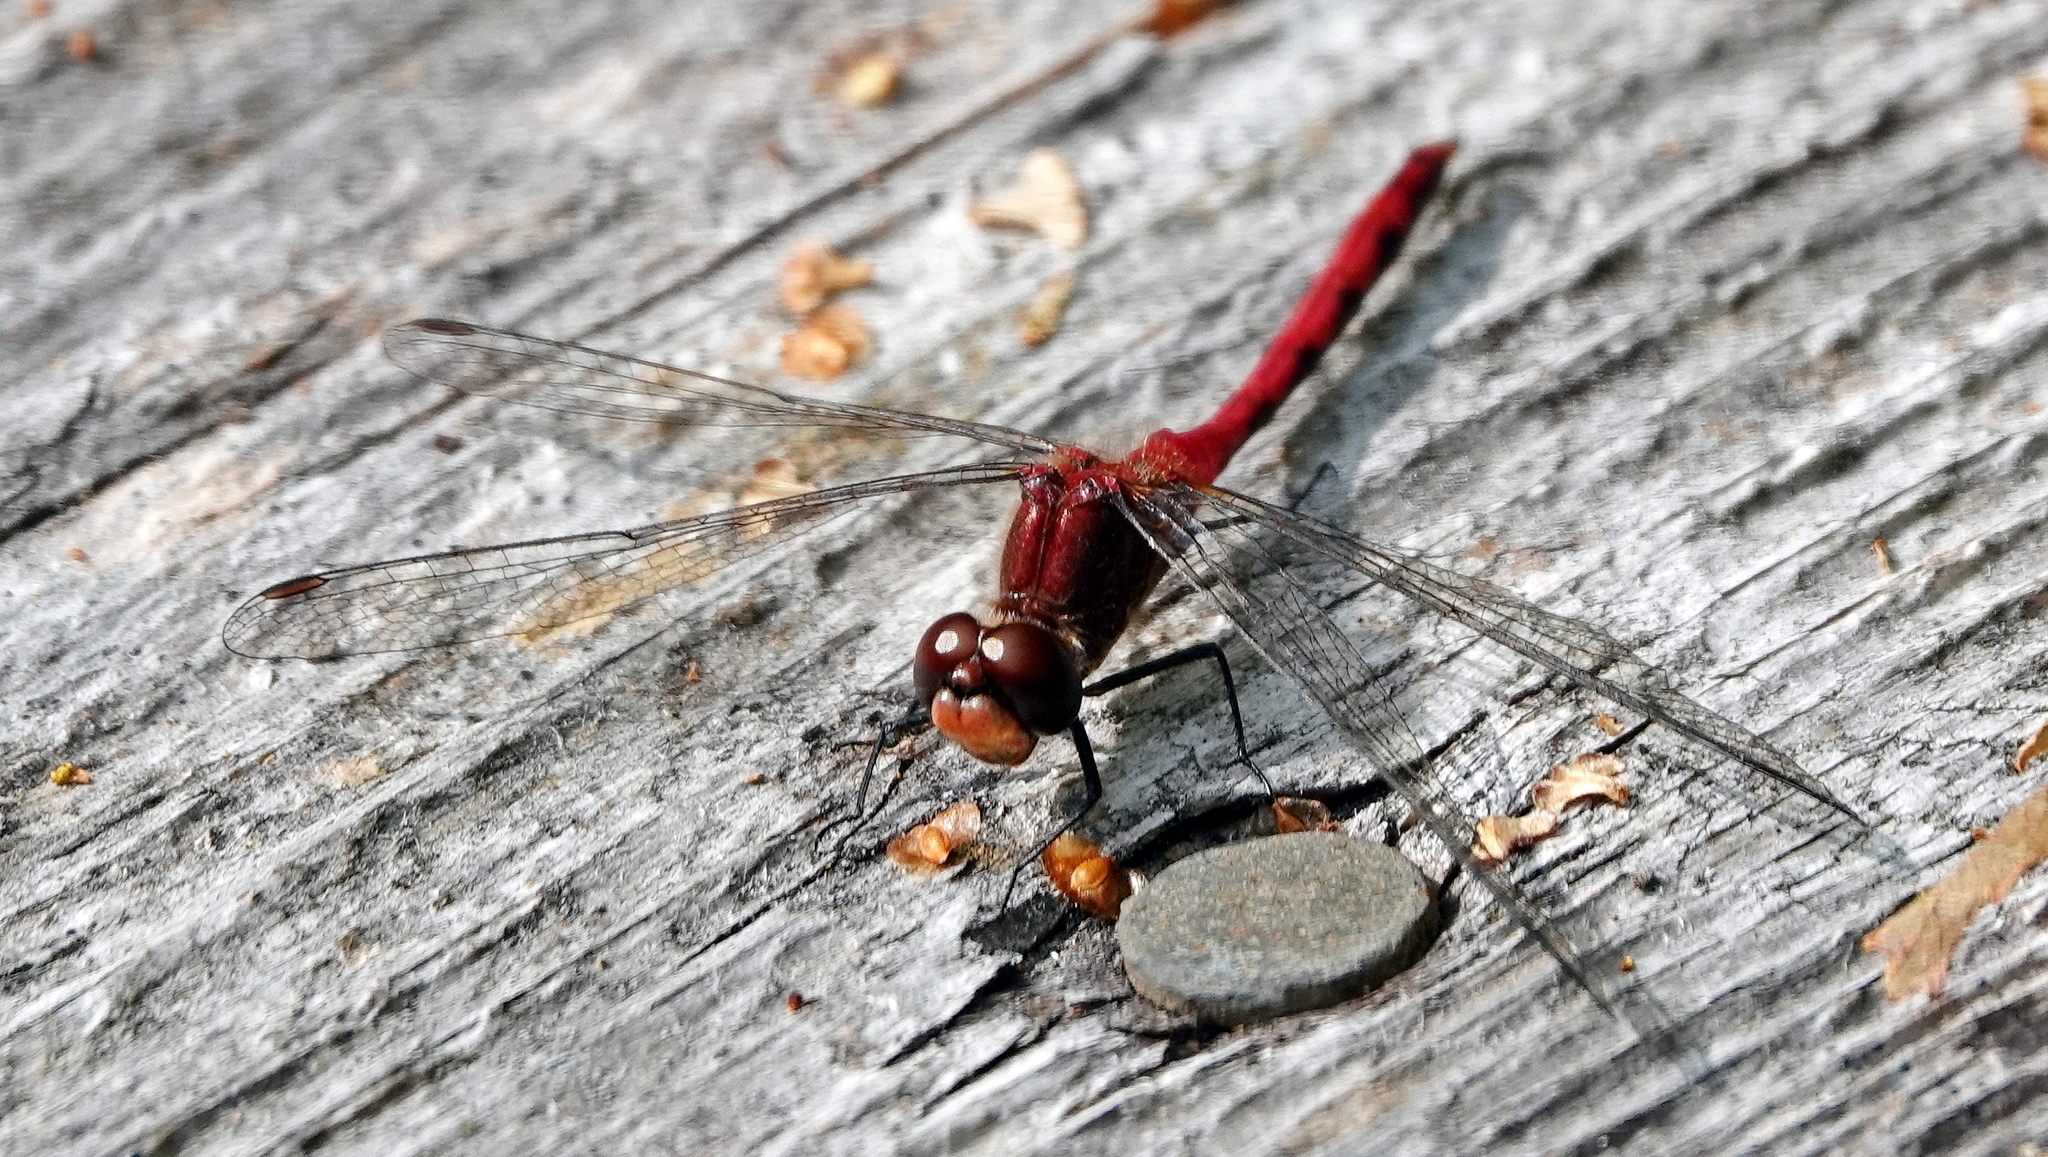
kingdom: Animalia
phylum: Arthropoda
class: Insecta
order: Odonata
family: Libellulidae
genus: Sympetrum
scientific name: Sympetrum internum
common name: Cherry-faced meadowhawk
